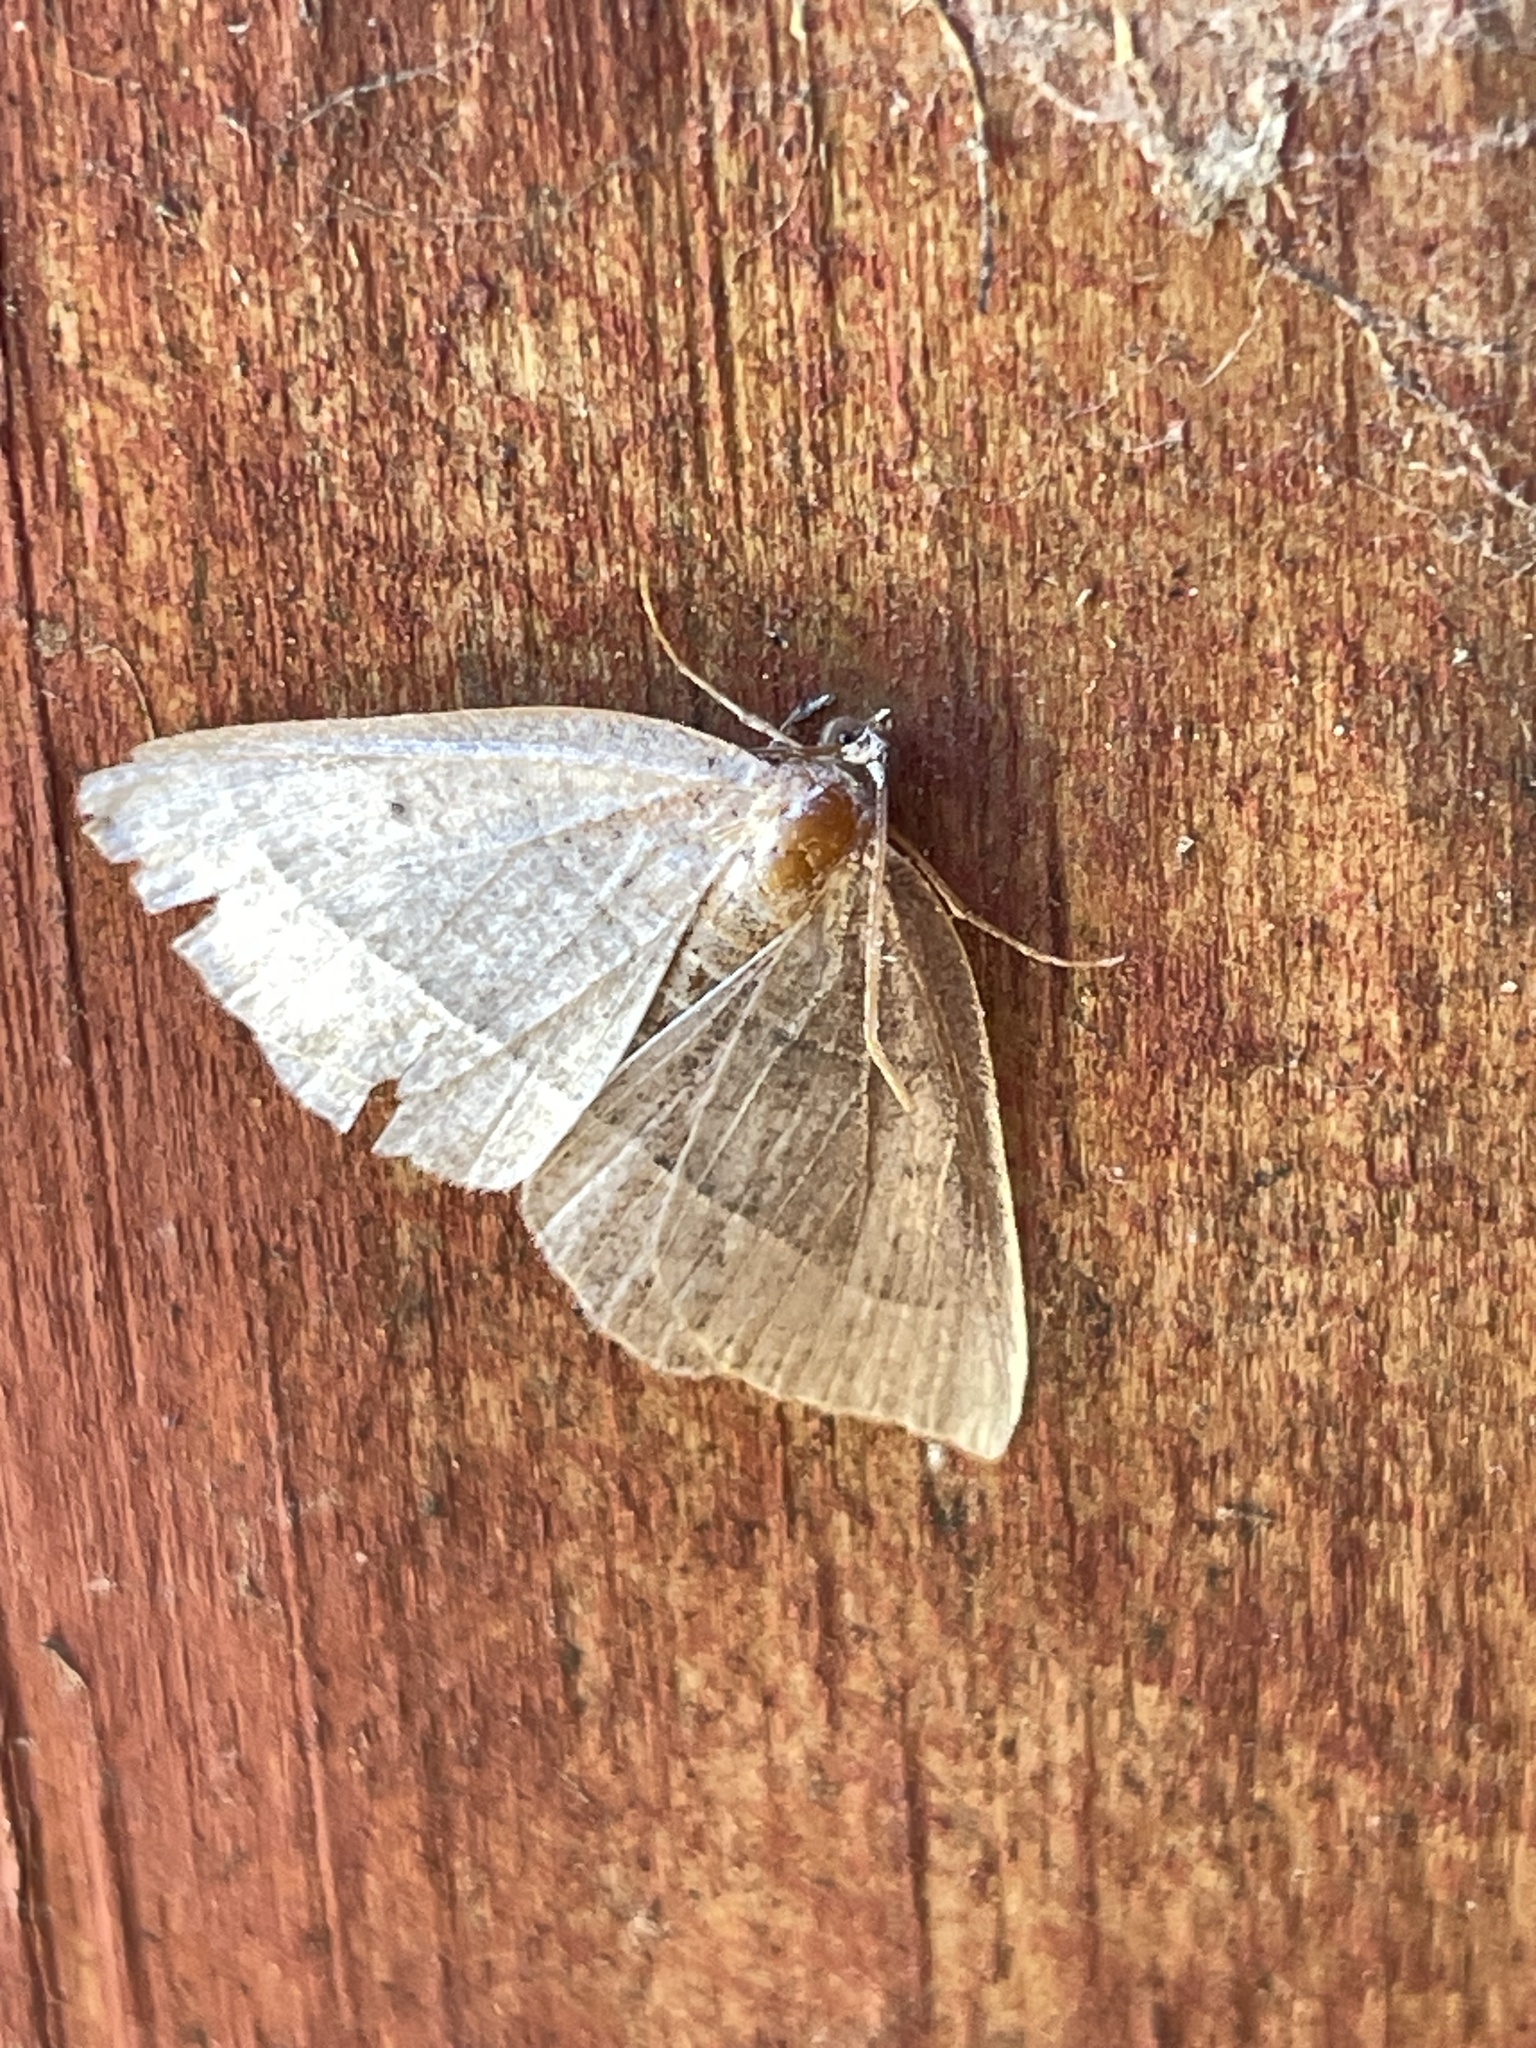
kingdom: Animalia
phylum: Arthropoda
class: Insecta
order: Lepidoptera
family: Geometridae
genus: Episemasia
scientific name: Episemasia cervinaria
